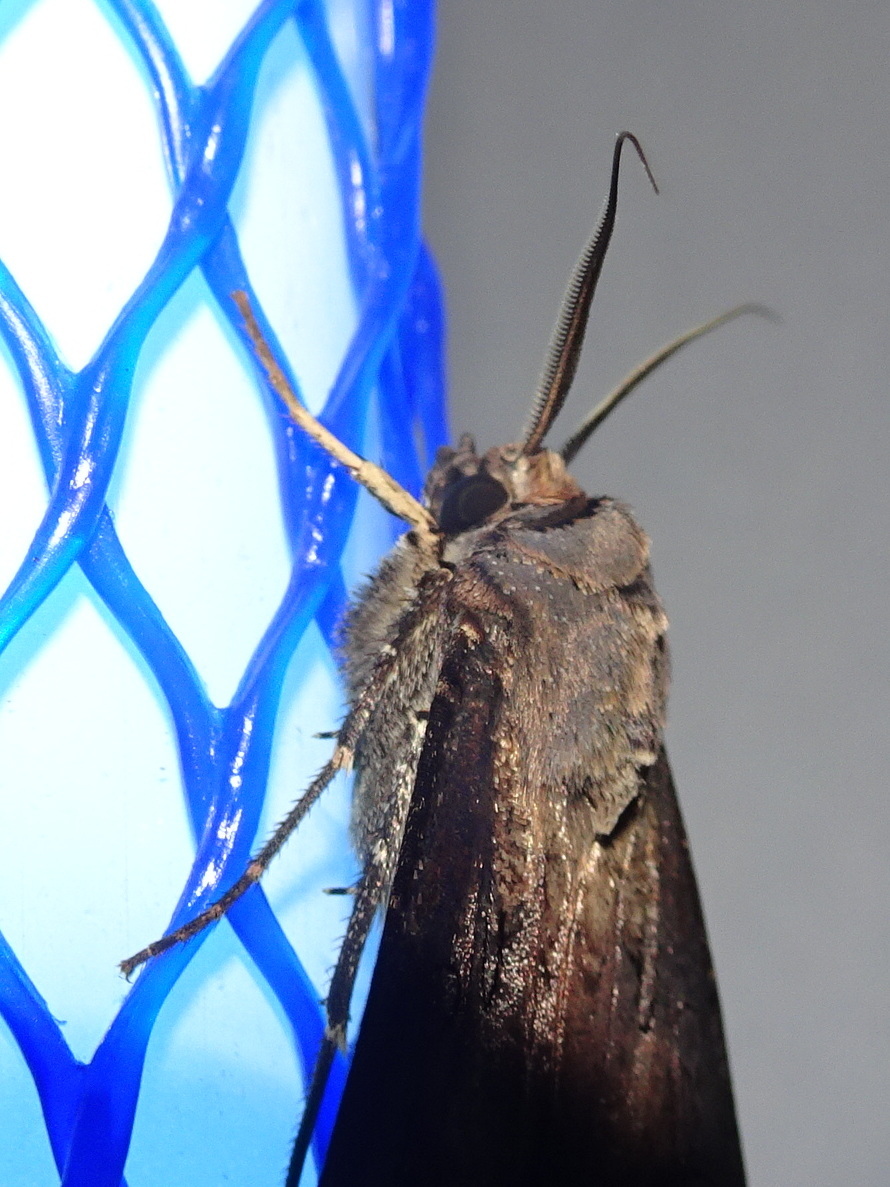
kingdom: Animalia
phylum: Arthropoda
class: Insecta
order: Lepidoptera
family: Noctuidae
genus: Agrotis
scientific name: Agrotis ipsilon
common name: Dark sword-grass
